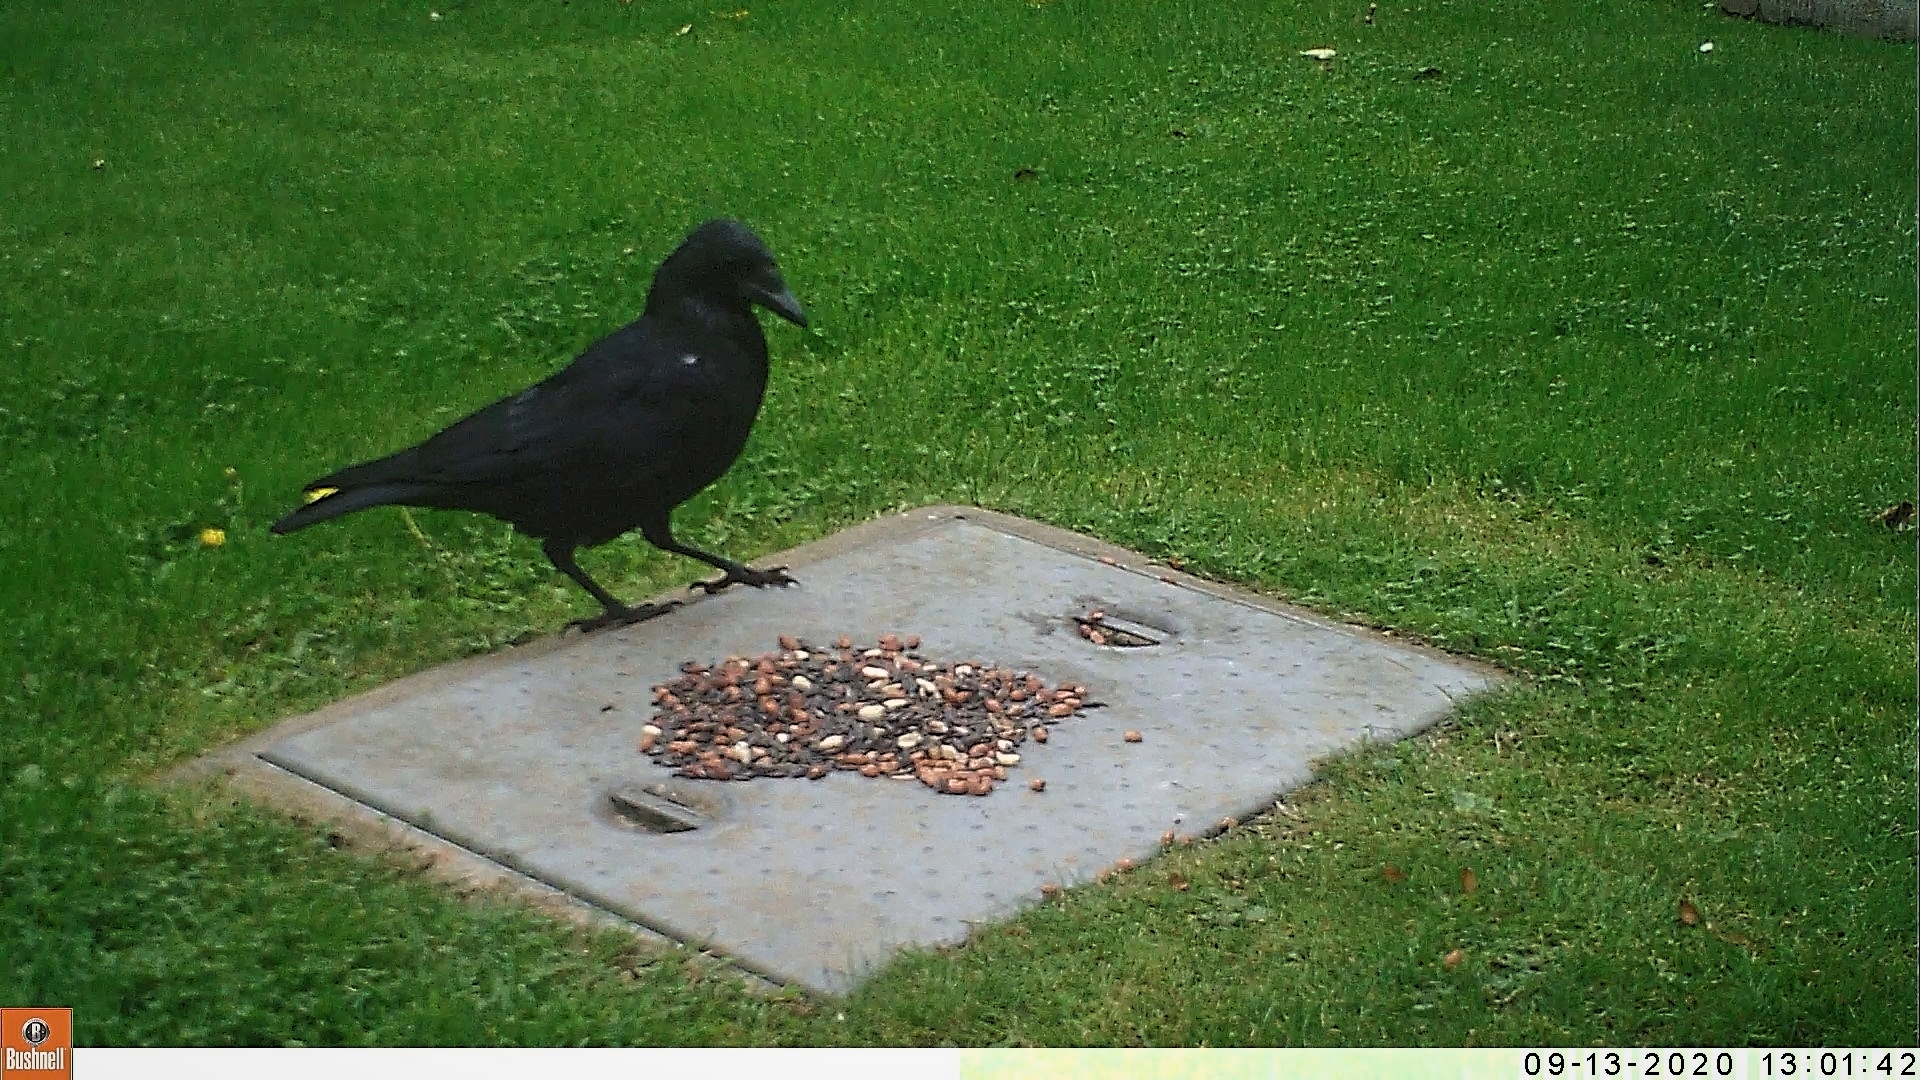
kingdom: Animalia
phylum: Chordata
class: Aves
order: Passeriformes
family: Corvidae
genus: Corvus
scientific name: Corvus corone
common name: Carrion crow
